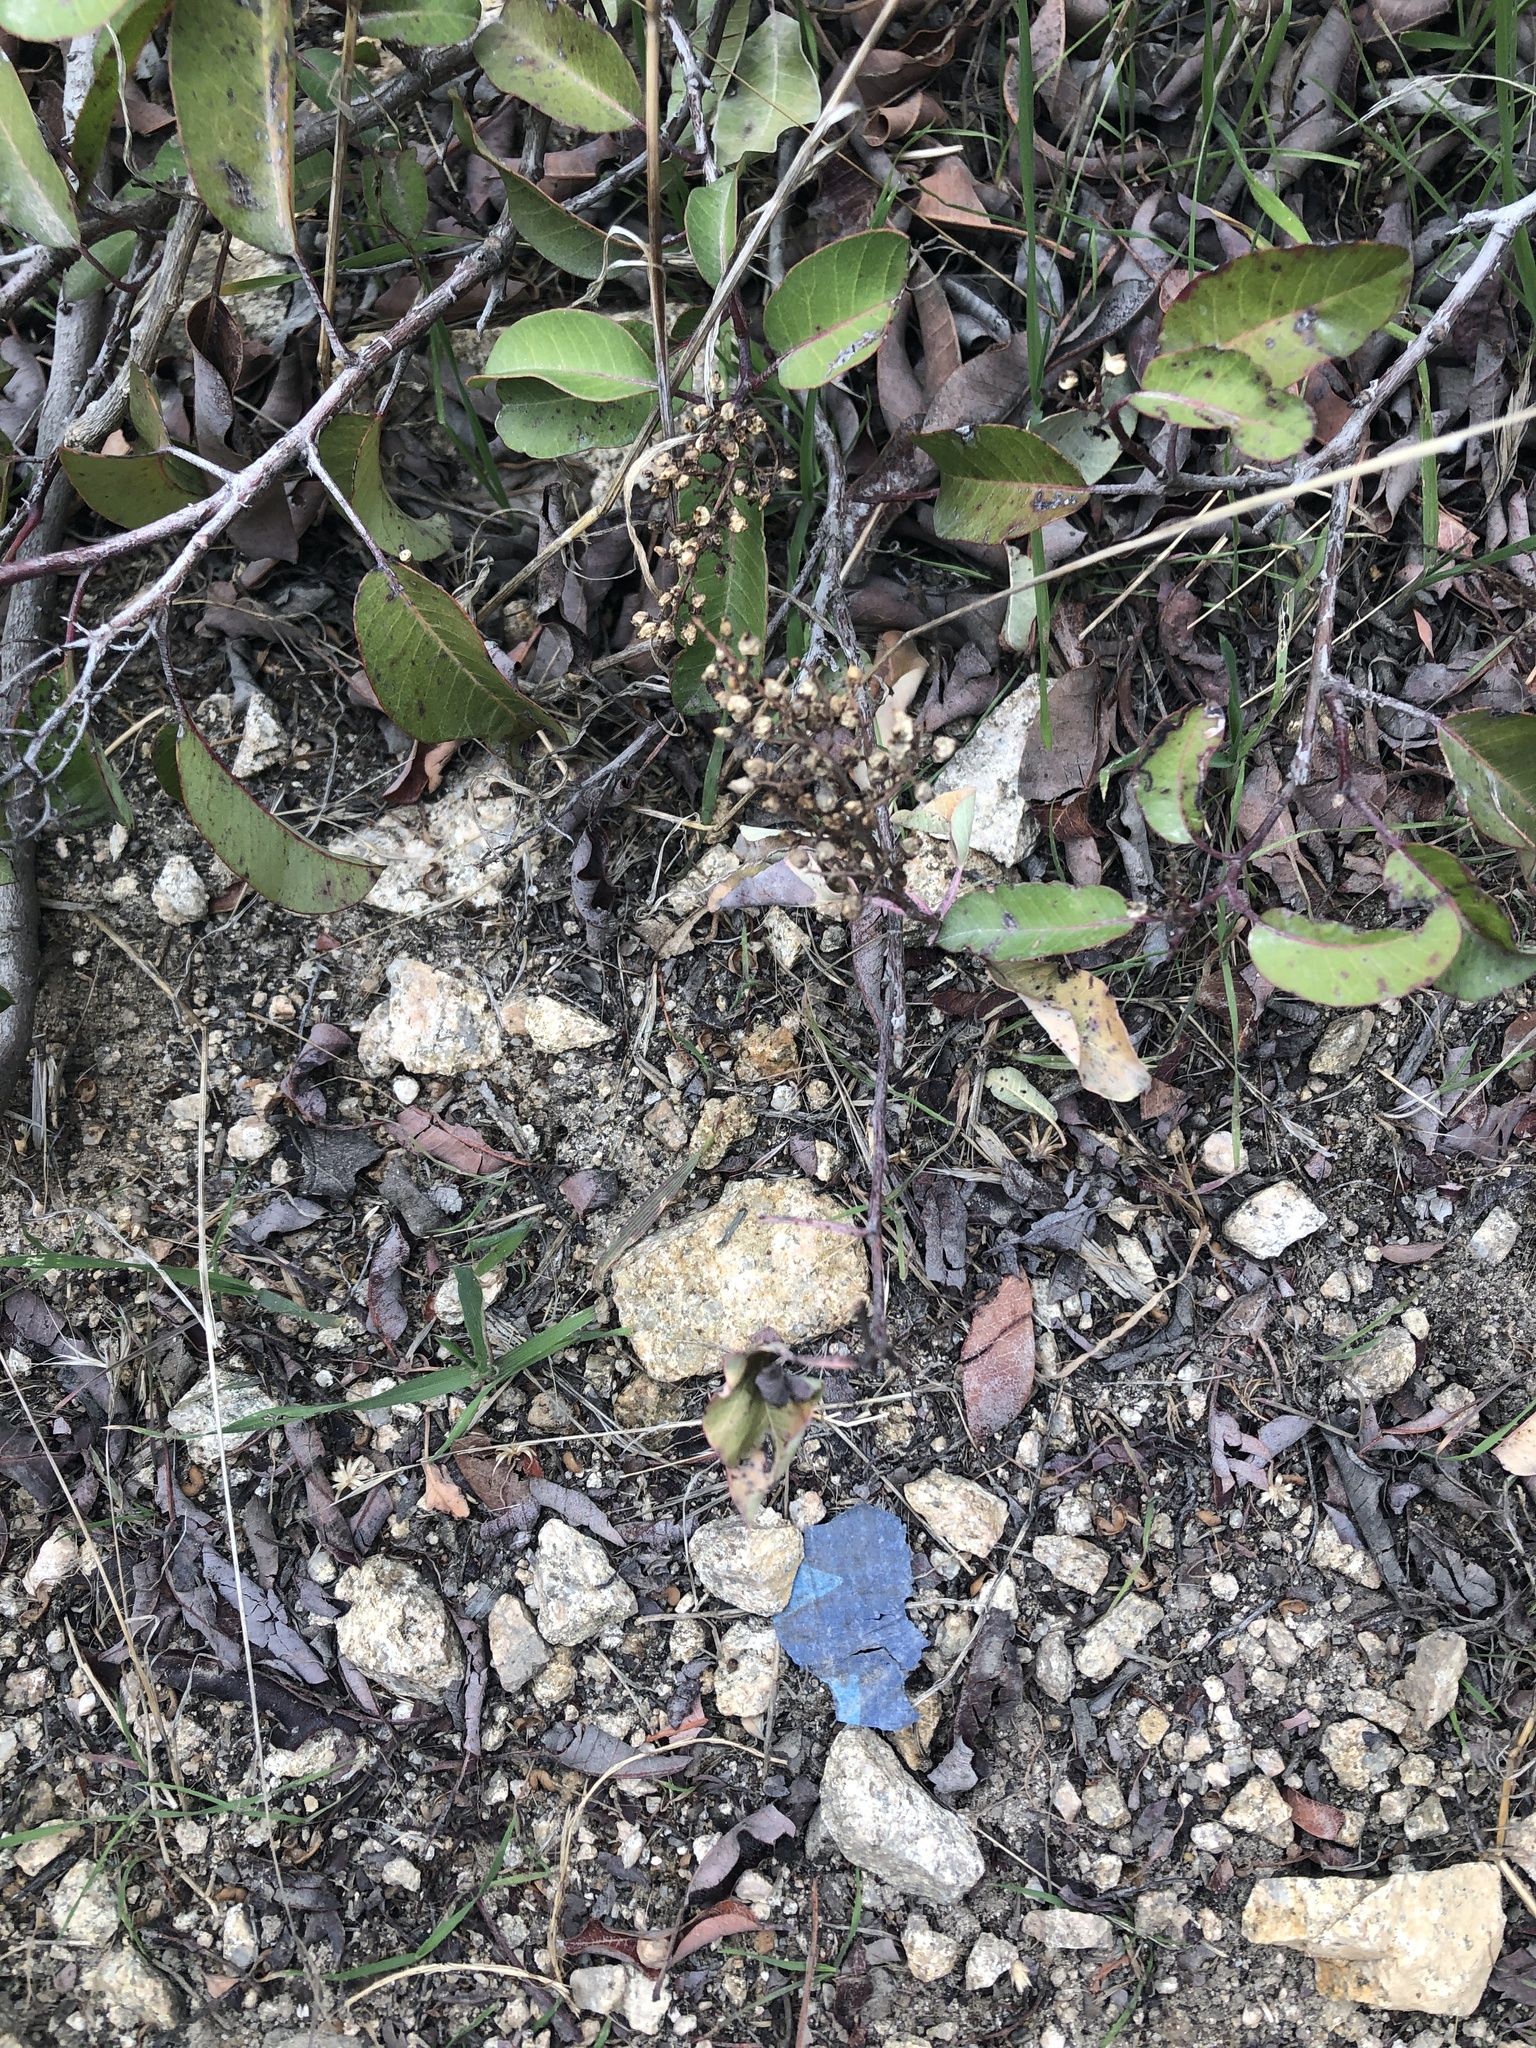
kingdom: Plantae
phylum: Tracheophyta
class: Magnoliopsida
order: Sapindales
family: Anacardiaceae
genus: Malosma
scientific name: Malosma laurina
